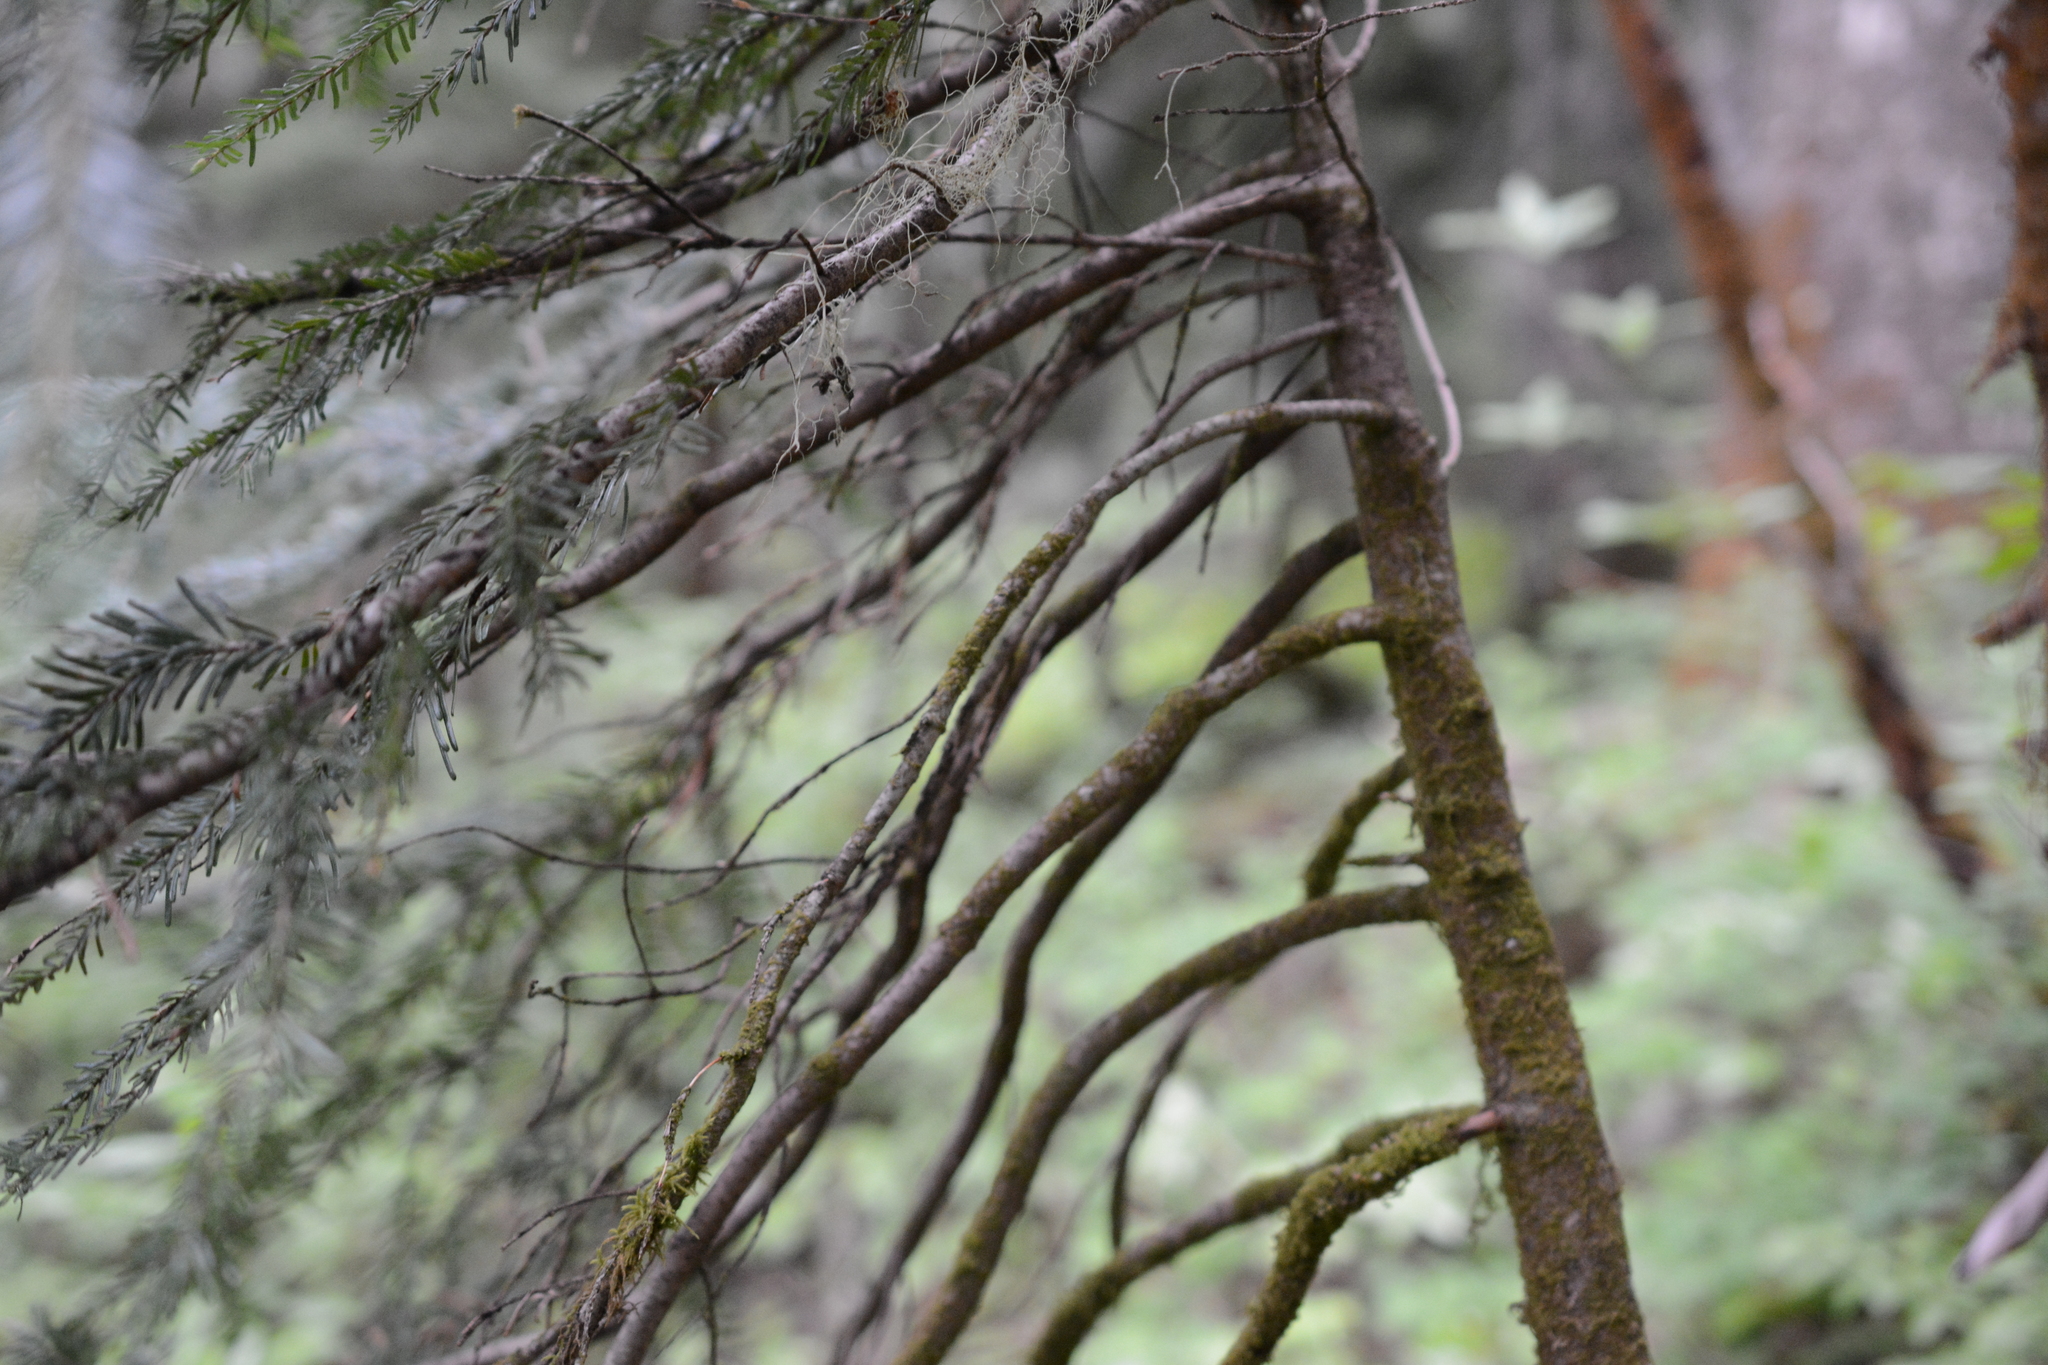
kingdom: Plantae
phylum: Tracheophyta
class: Pinopsida
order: Pinales
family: Pinaceae
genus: Abies
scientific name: Abies amabilis
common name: Pacific silver fir
